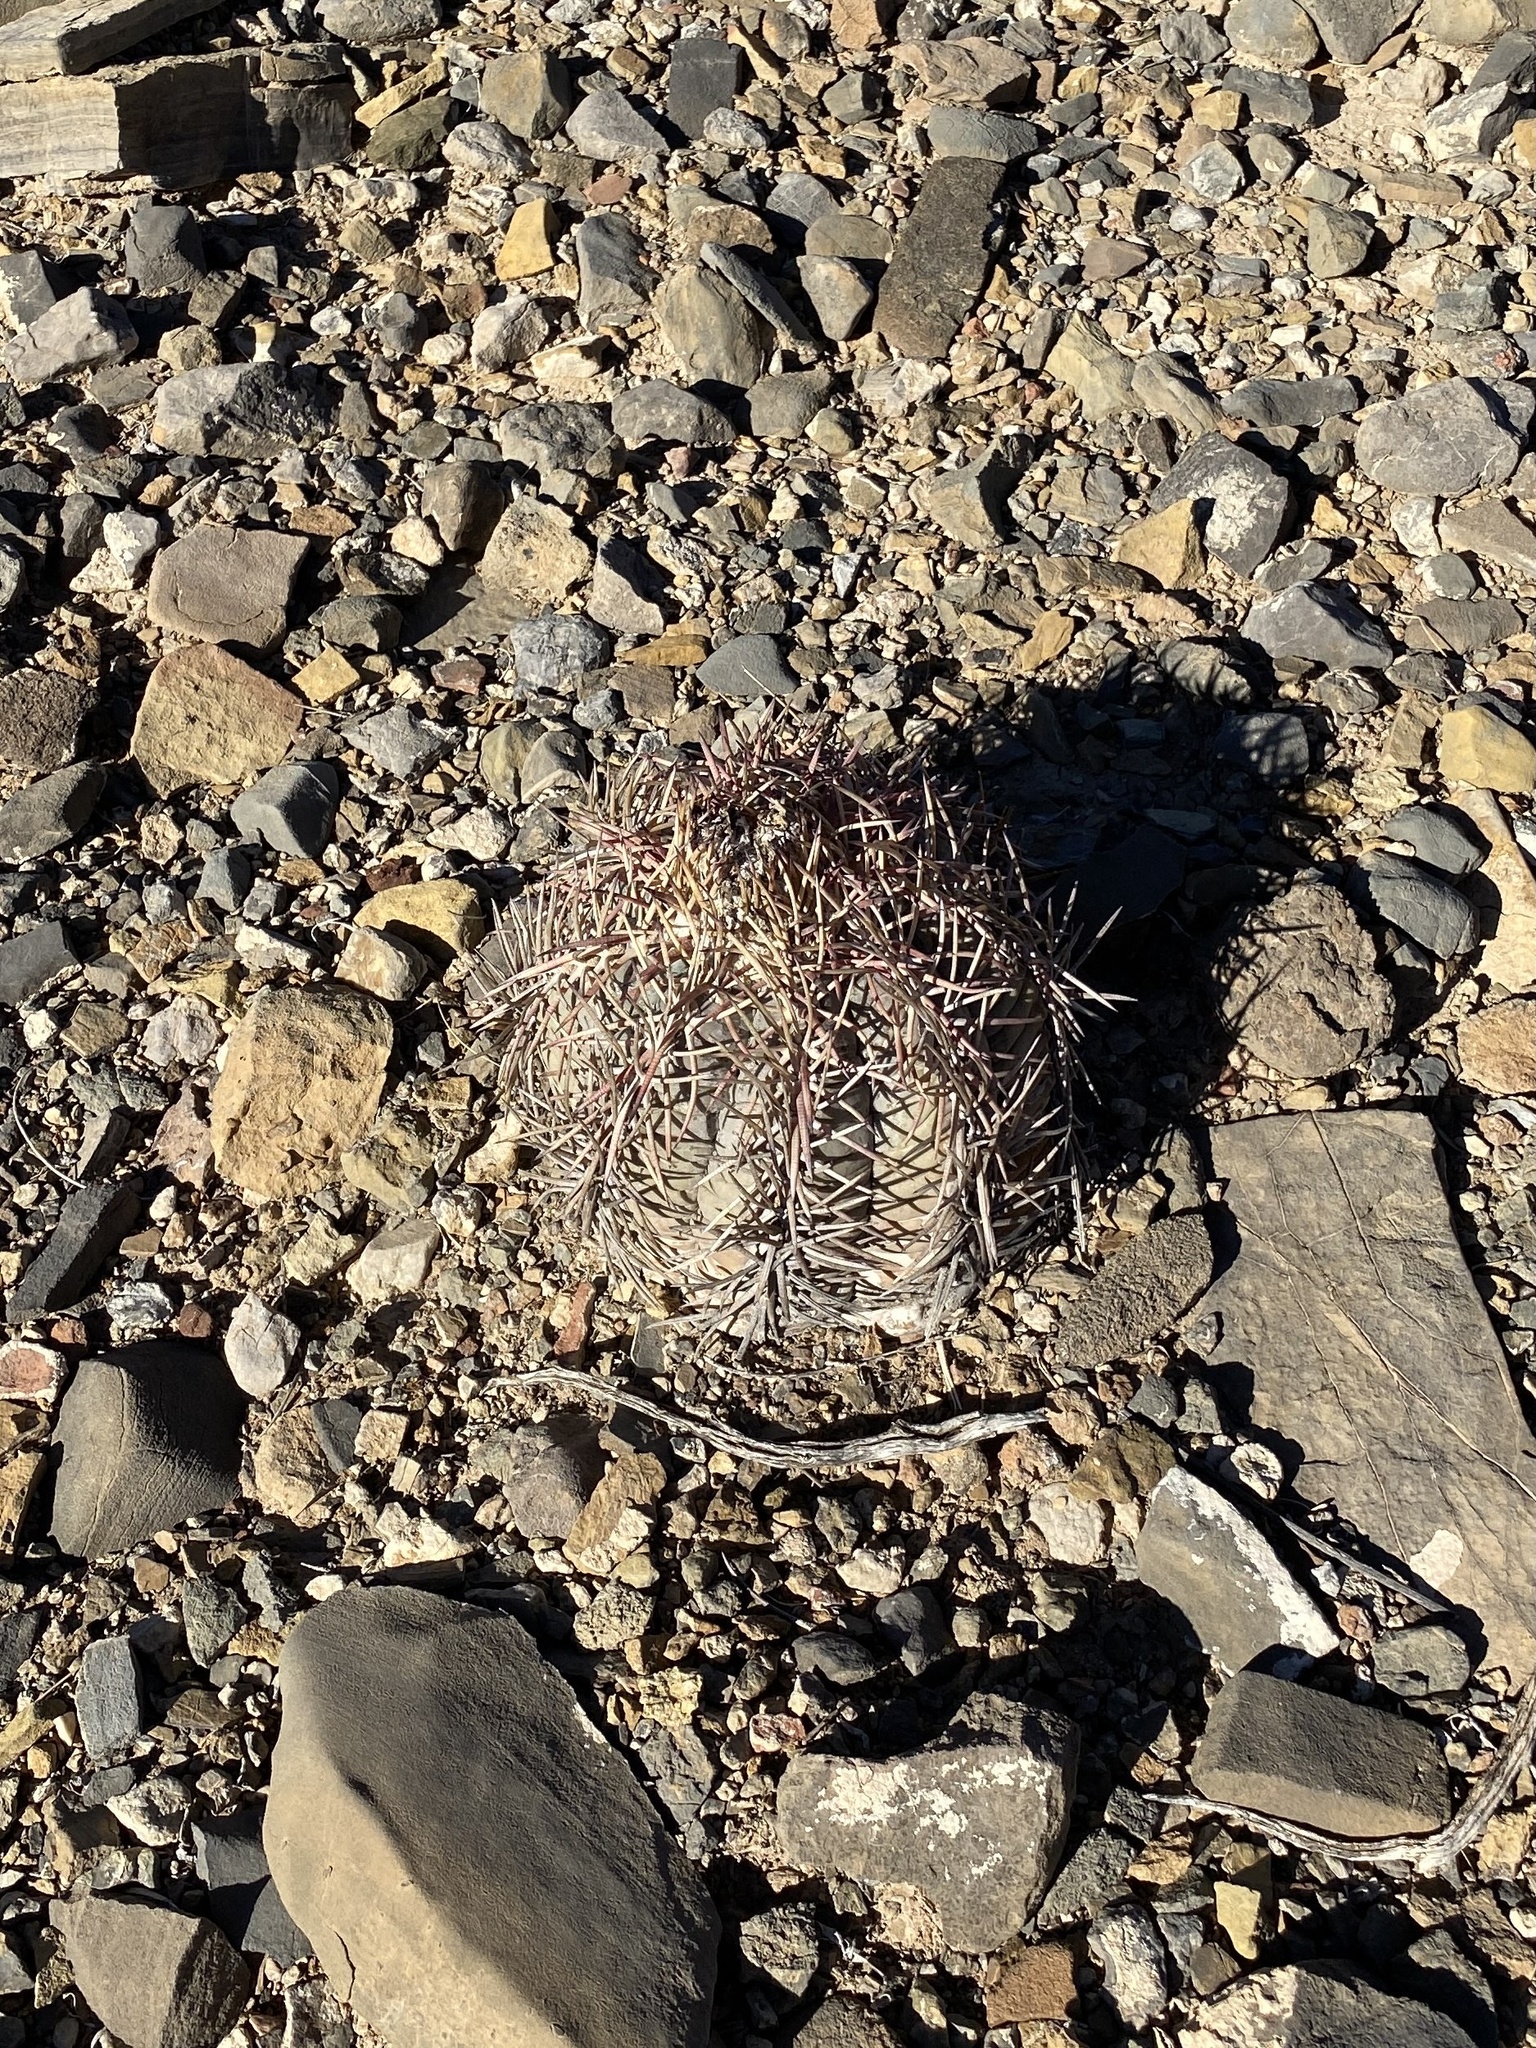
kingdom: Plantae
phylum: Tracheophyta
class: Magnoliopsida
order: Caryophyllales
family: Cactaceae
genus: Echinocactus
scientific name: Echinocactus horizonthalonius
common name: Devilshead
